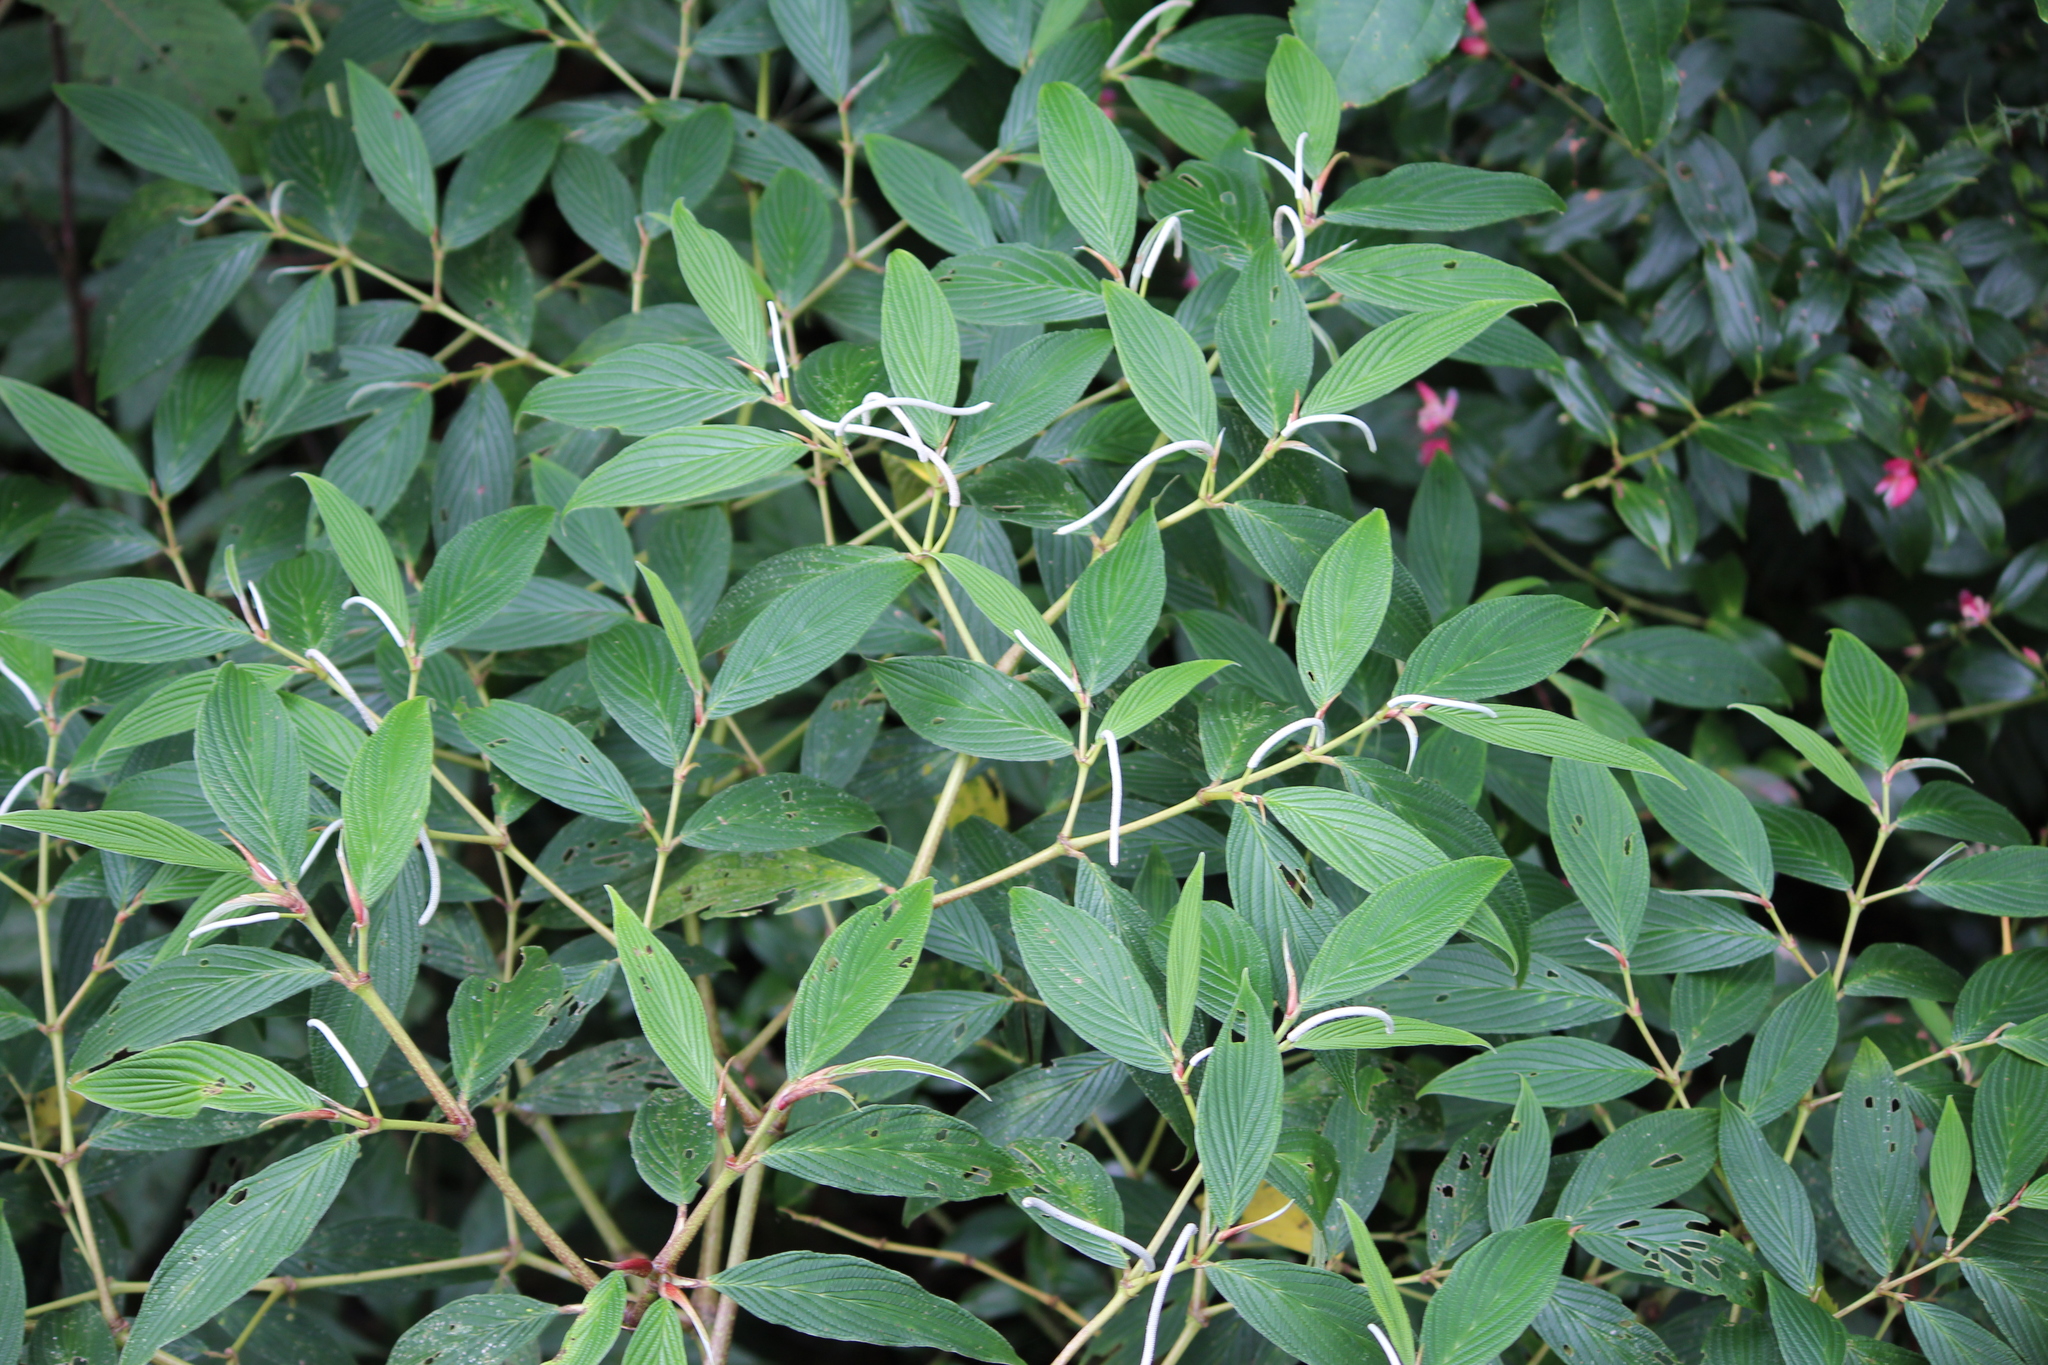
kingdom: Plantae
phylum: Tracheophyta
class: Magnoliopsida
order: Piperales
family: Piperaceae
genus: Piper
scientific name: Piper aduncum
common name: Spiked pepper
